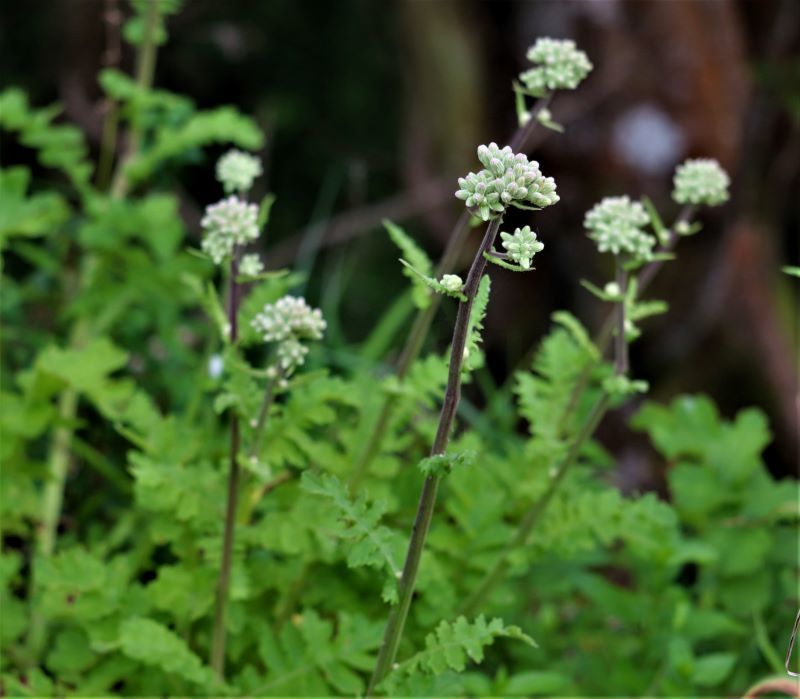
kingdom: Plantae
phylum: Tracheophyta
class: Magnoliopsida
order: Asterales
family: Asteraceae
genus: Senecio
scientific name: Senecio purpureus
